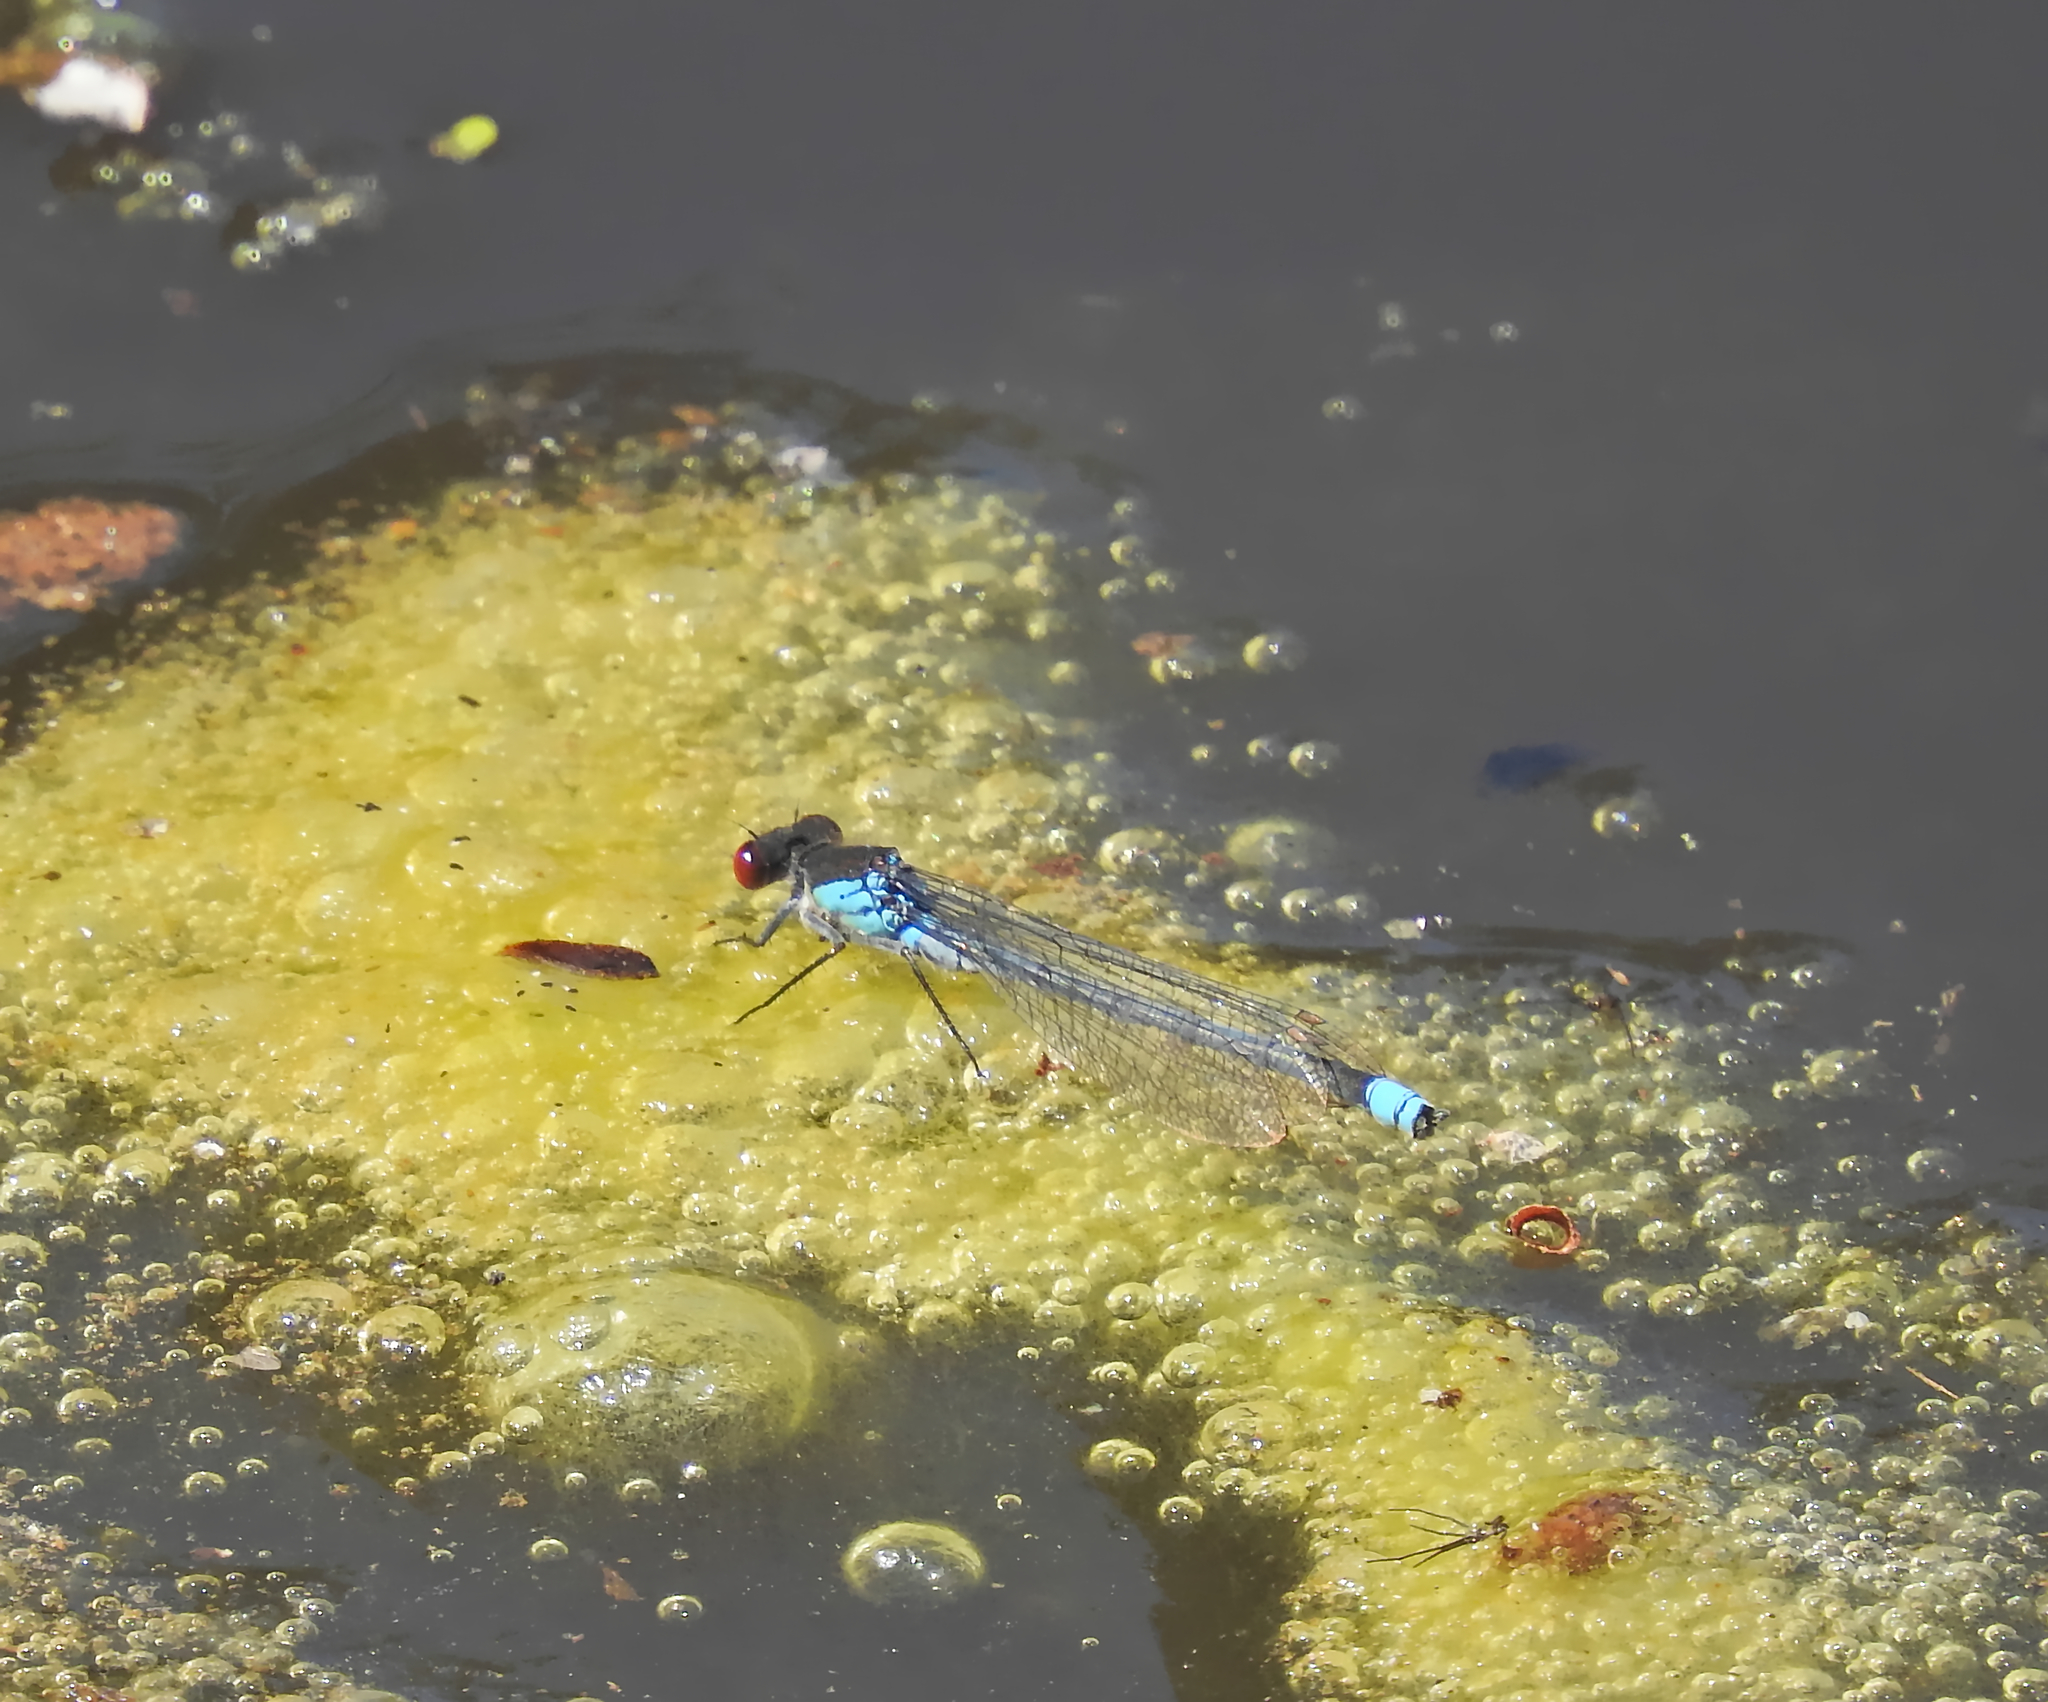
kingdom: Animalia
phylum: Arthropoda
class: Insecta
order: Odonata
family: Coenagrionidae
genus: Erythromma
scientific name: Erythromma najas
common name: Red-eyed damselfly
